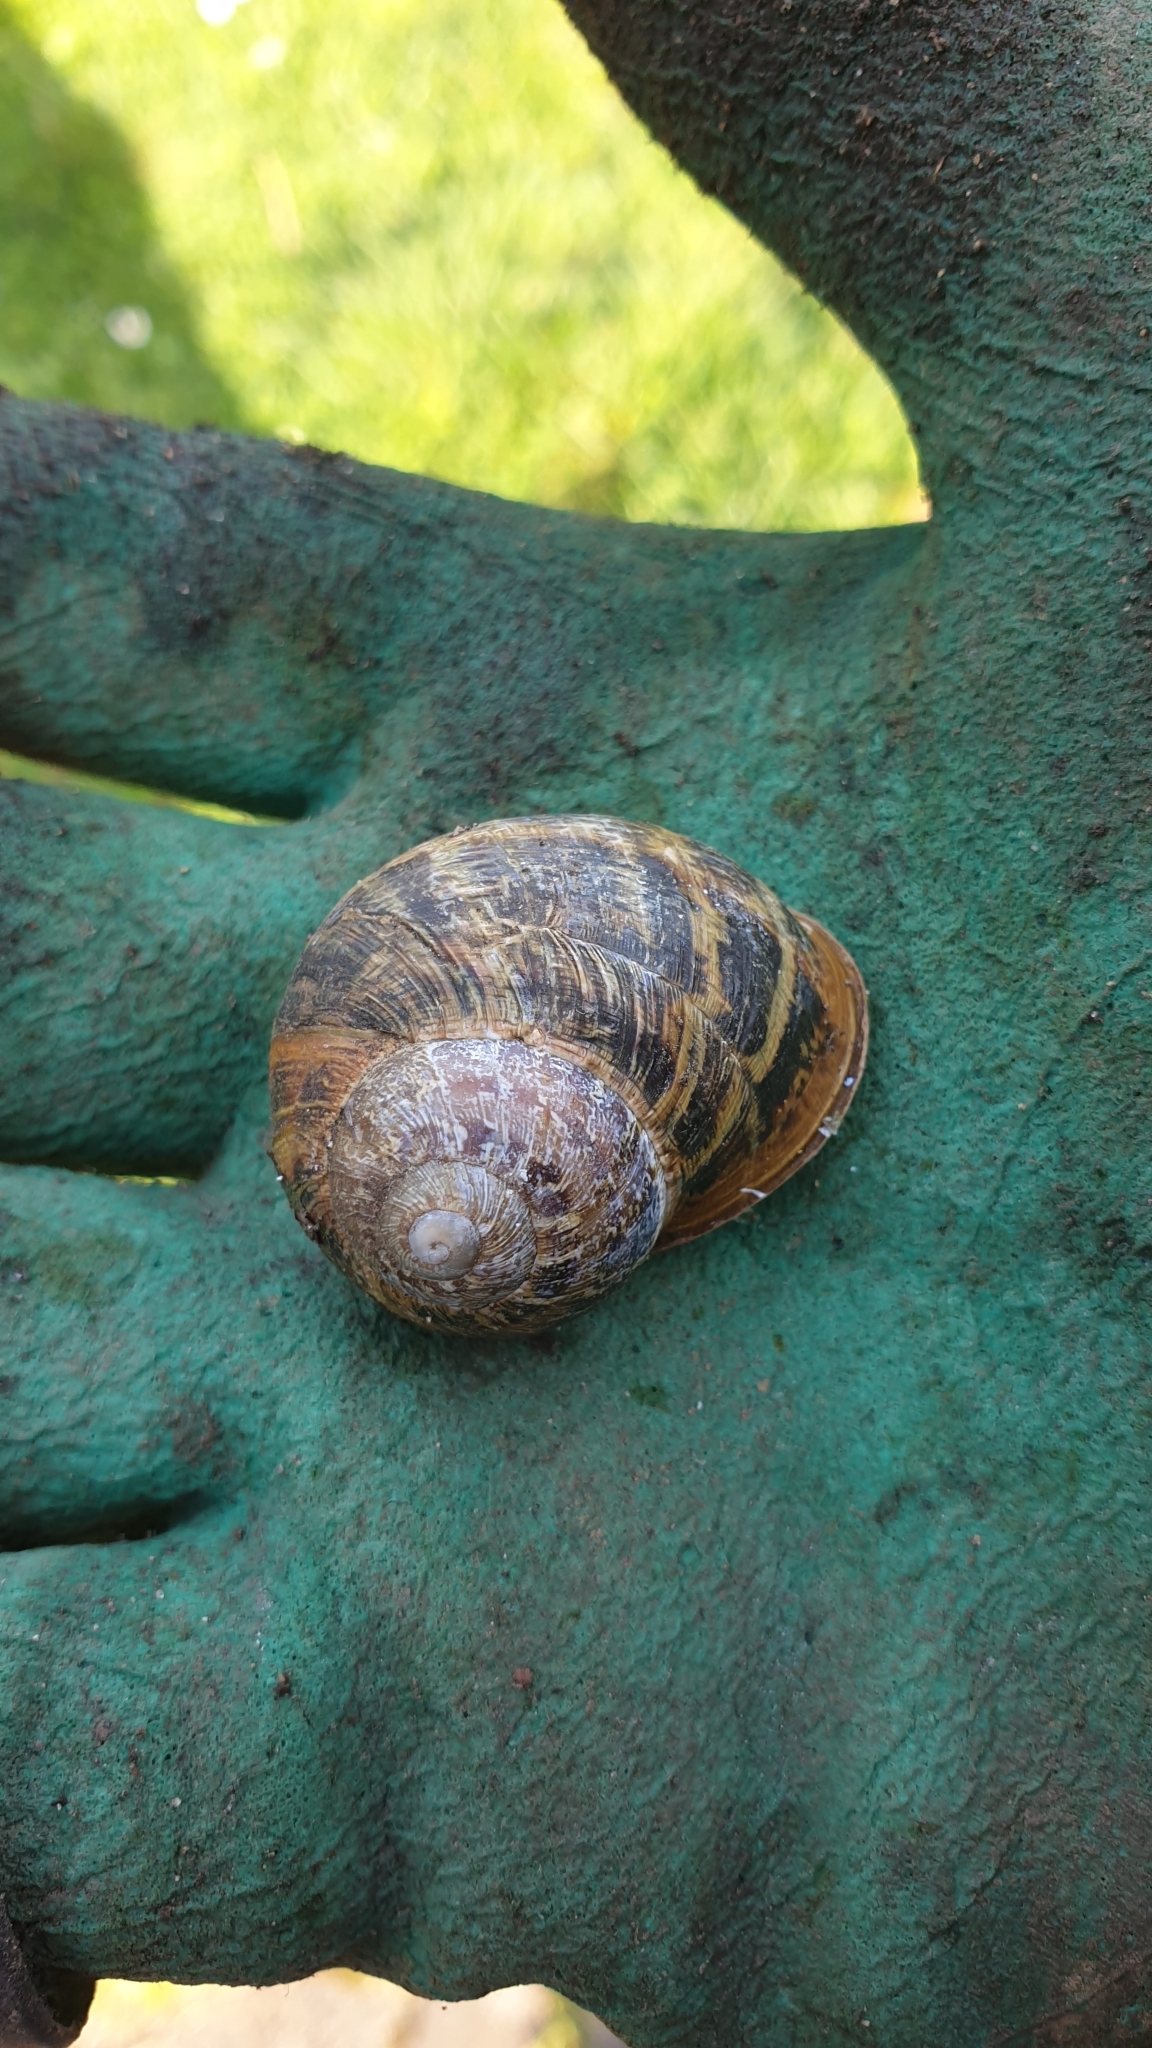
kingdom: Animalia
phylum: Mollusca
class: Gastropoda
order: Stylommatophora
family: Helicidae
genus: Cornu
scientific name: Cornu aspersum
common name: Brown garden snail
